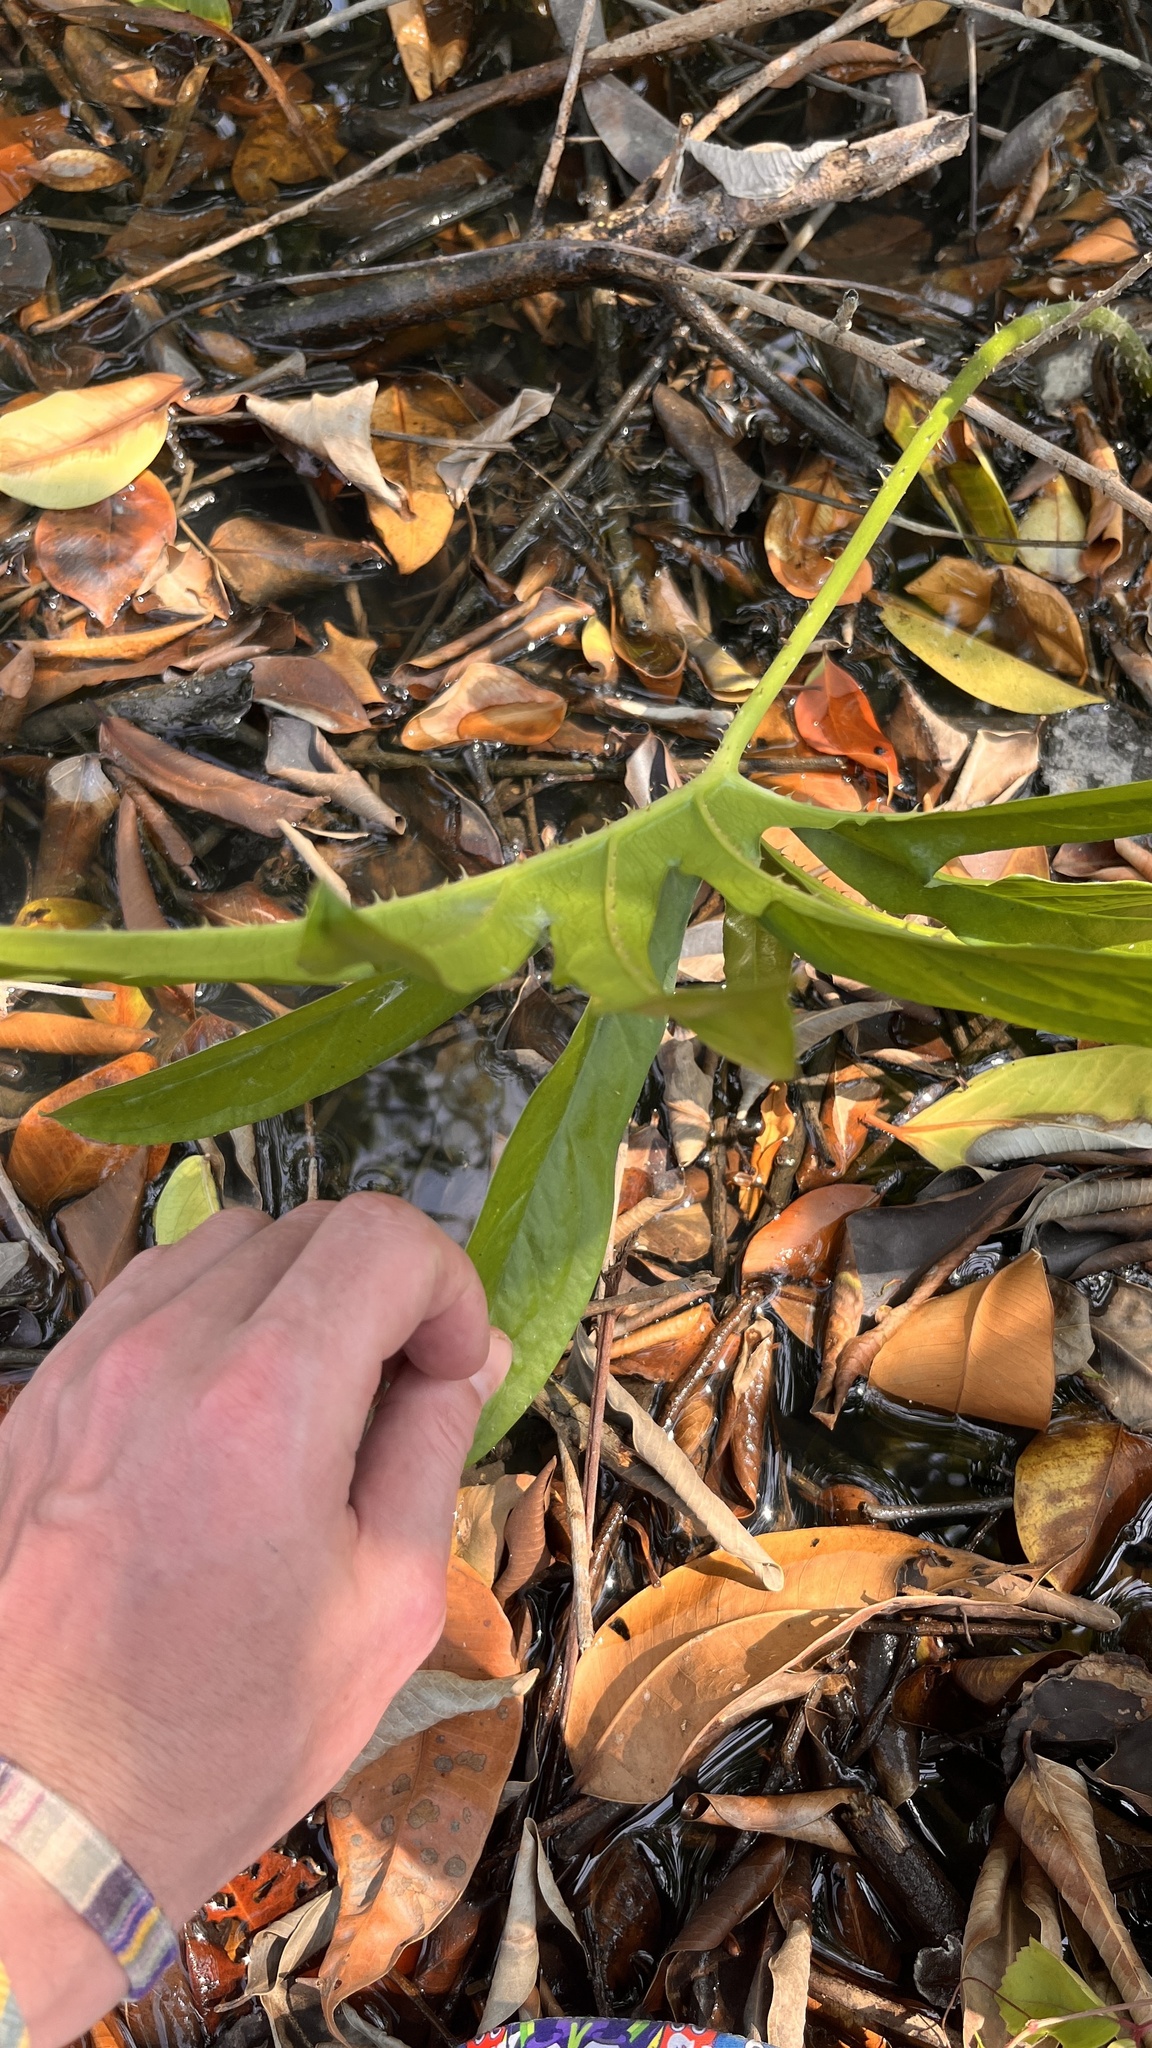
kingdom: Plantae
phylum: Tracheophyta
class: Liliopsida
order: Alismatales
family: Araceae
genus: Lasia
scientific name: Lasia spinosa
